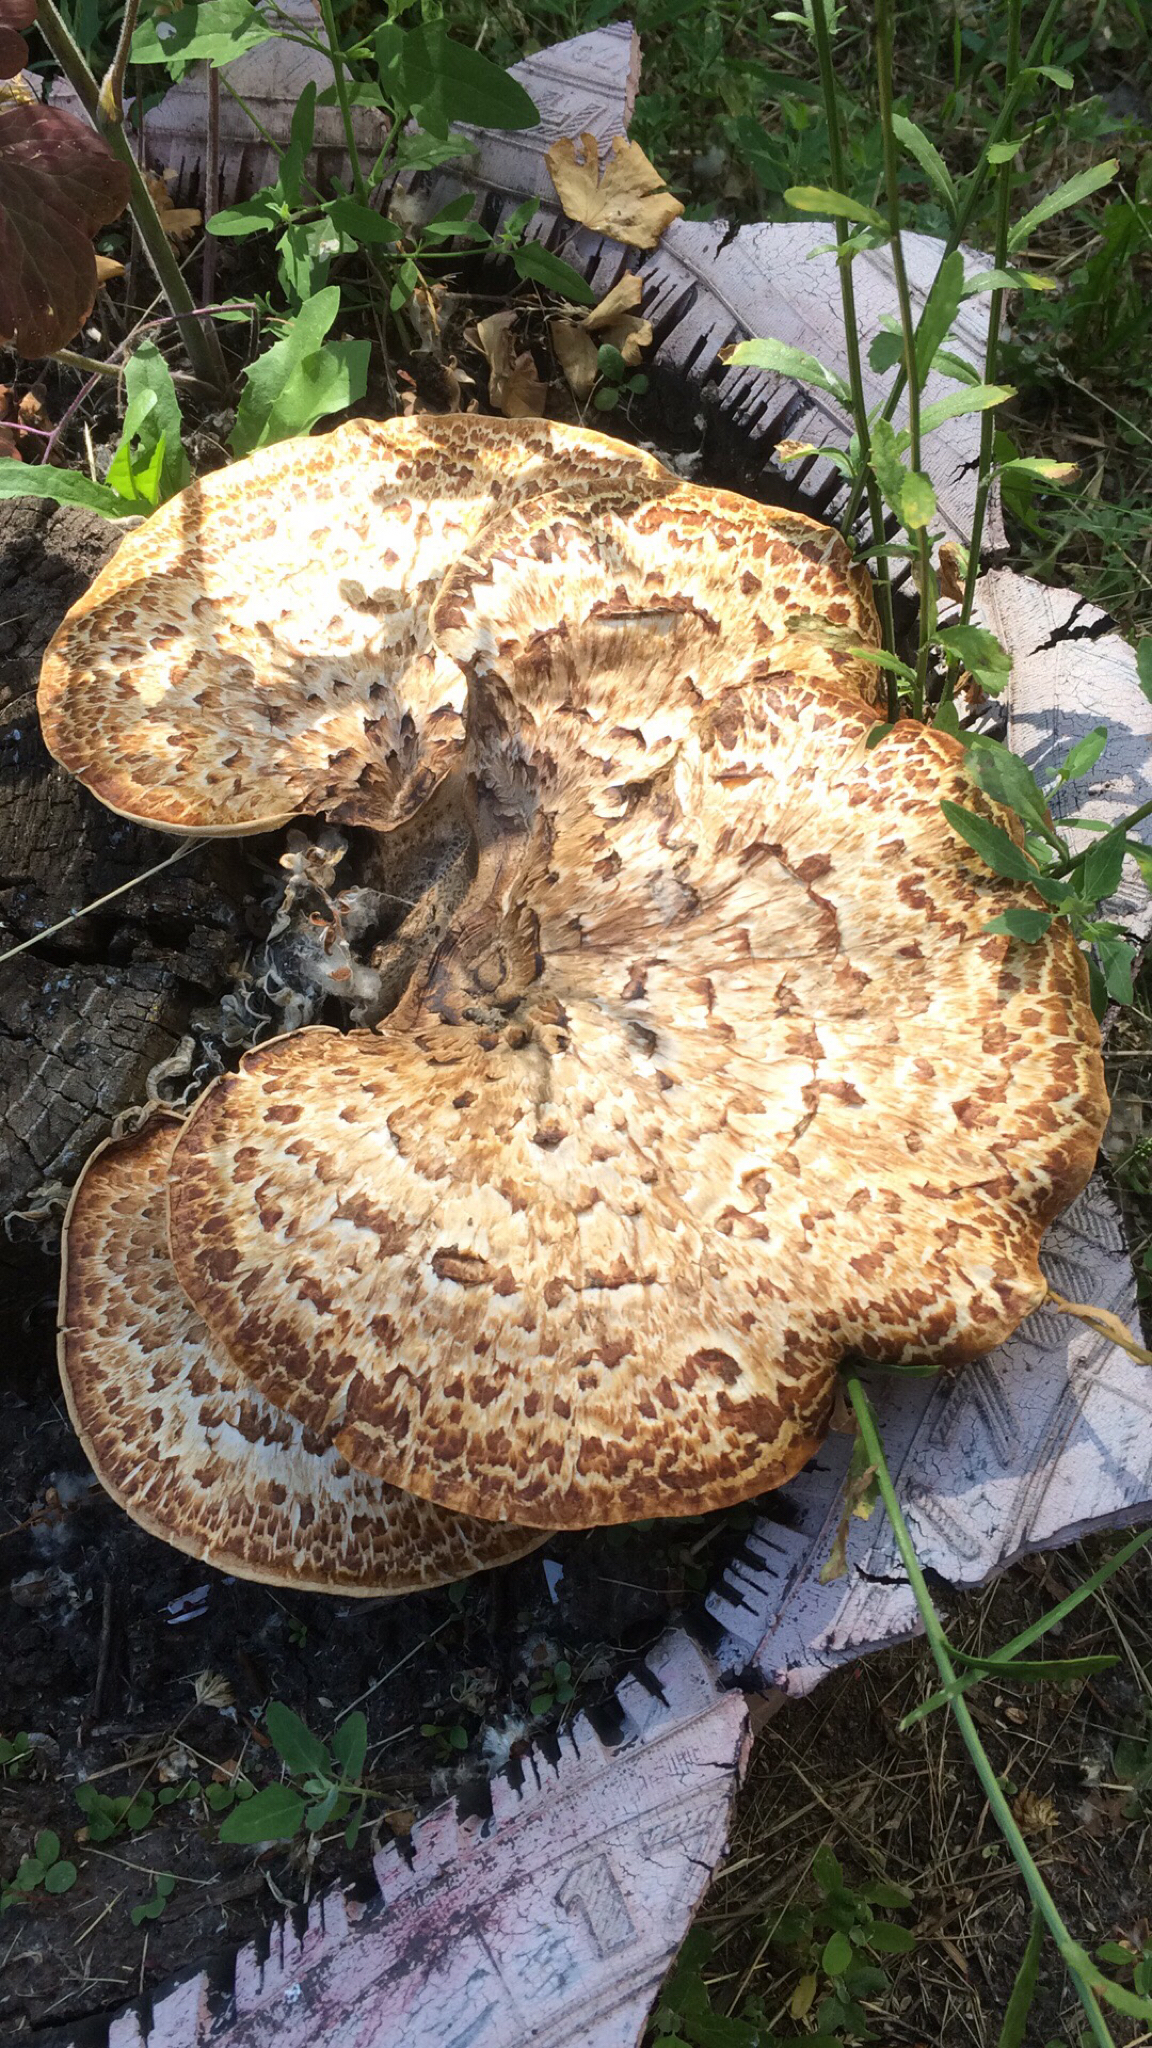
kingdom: Fungi
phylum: Basidiomycota
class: Agaricomycetes
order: Polyporales
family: Polyporaceae
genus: Cerioporus
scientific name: Cerioporus squamosus
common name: Dryad's saddle
